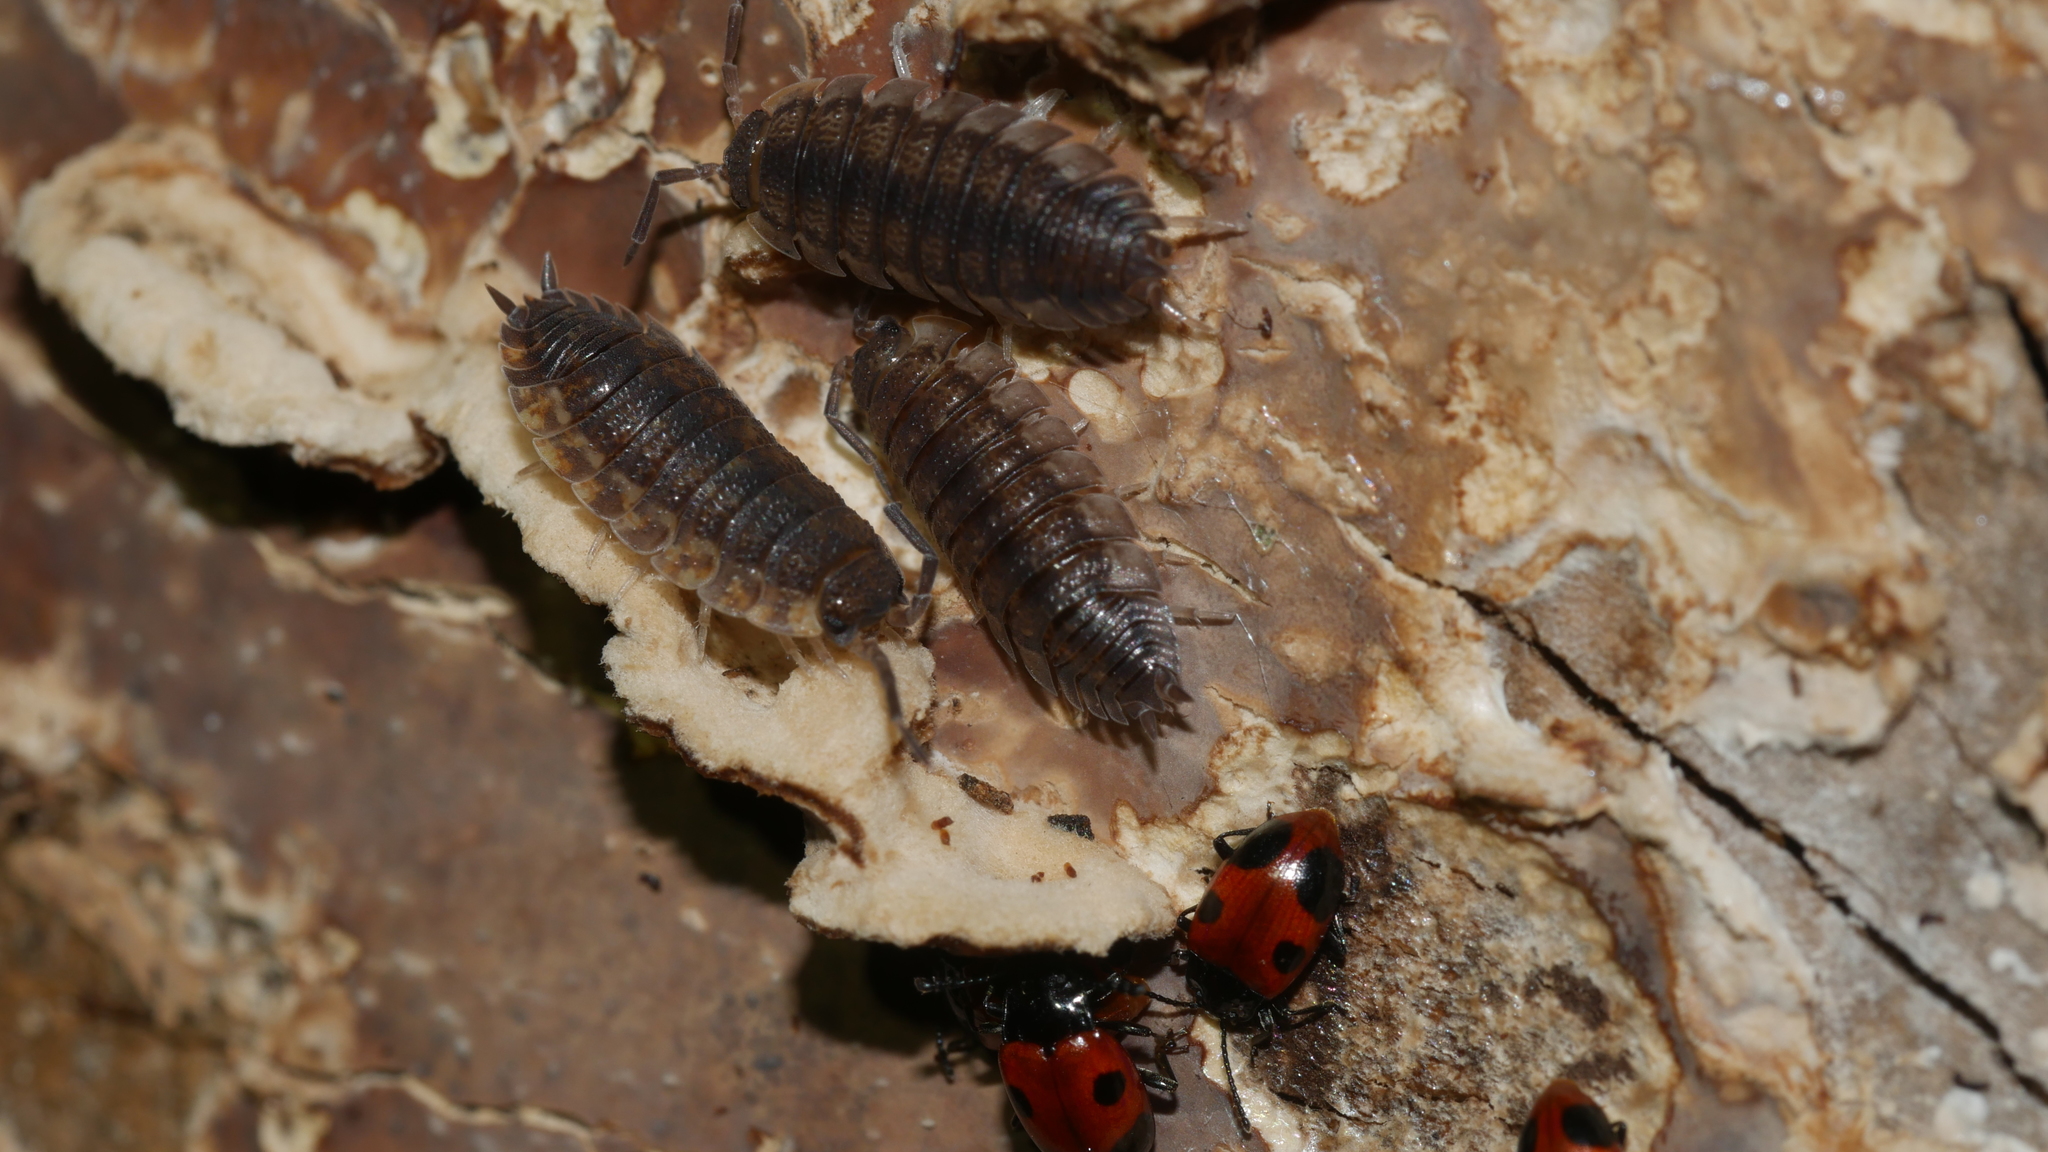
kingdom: Animalia
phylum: Arthropoda
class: Malacostraca
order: Isopoda
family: Porcellionidae
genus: Porcellio
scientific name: Porcellio scaber
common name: Common rough woodlouse
